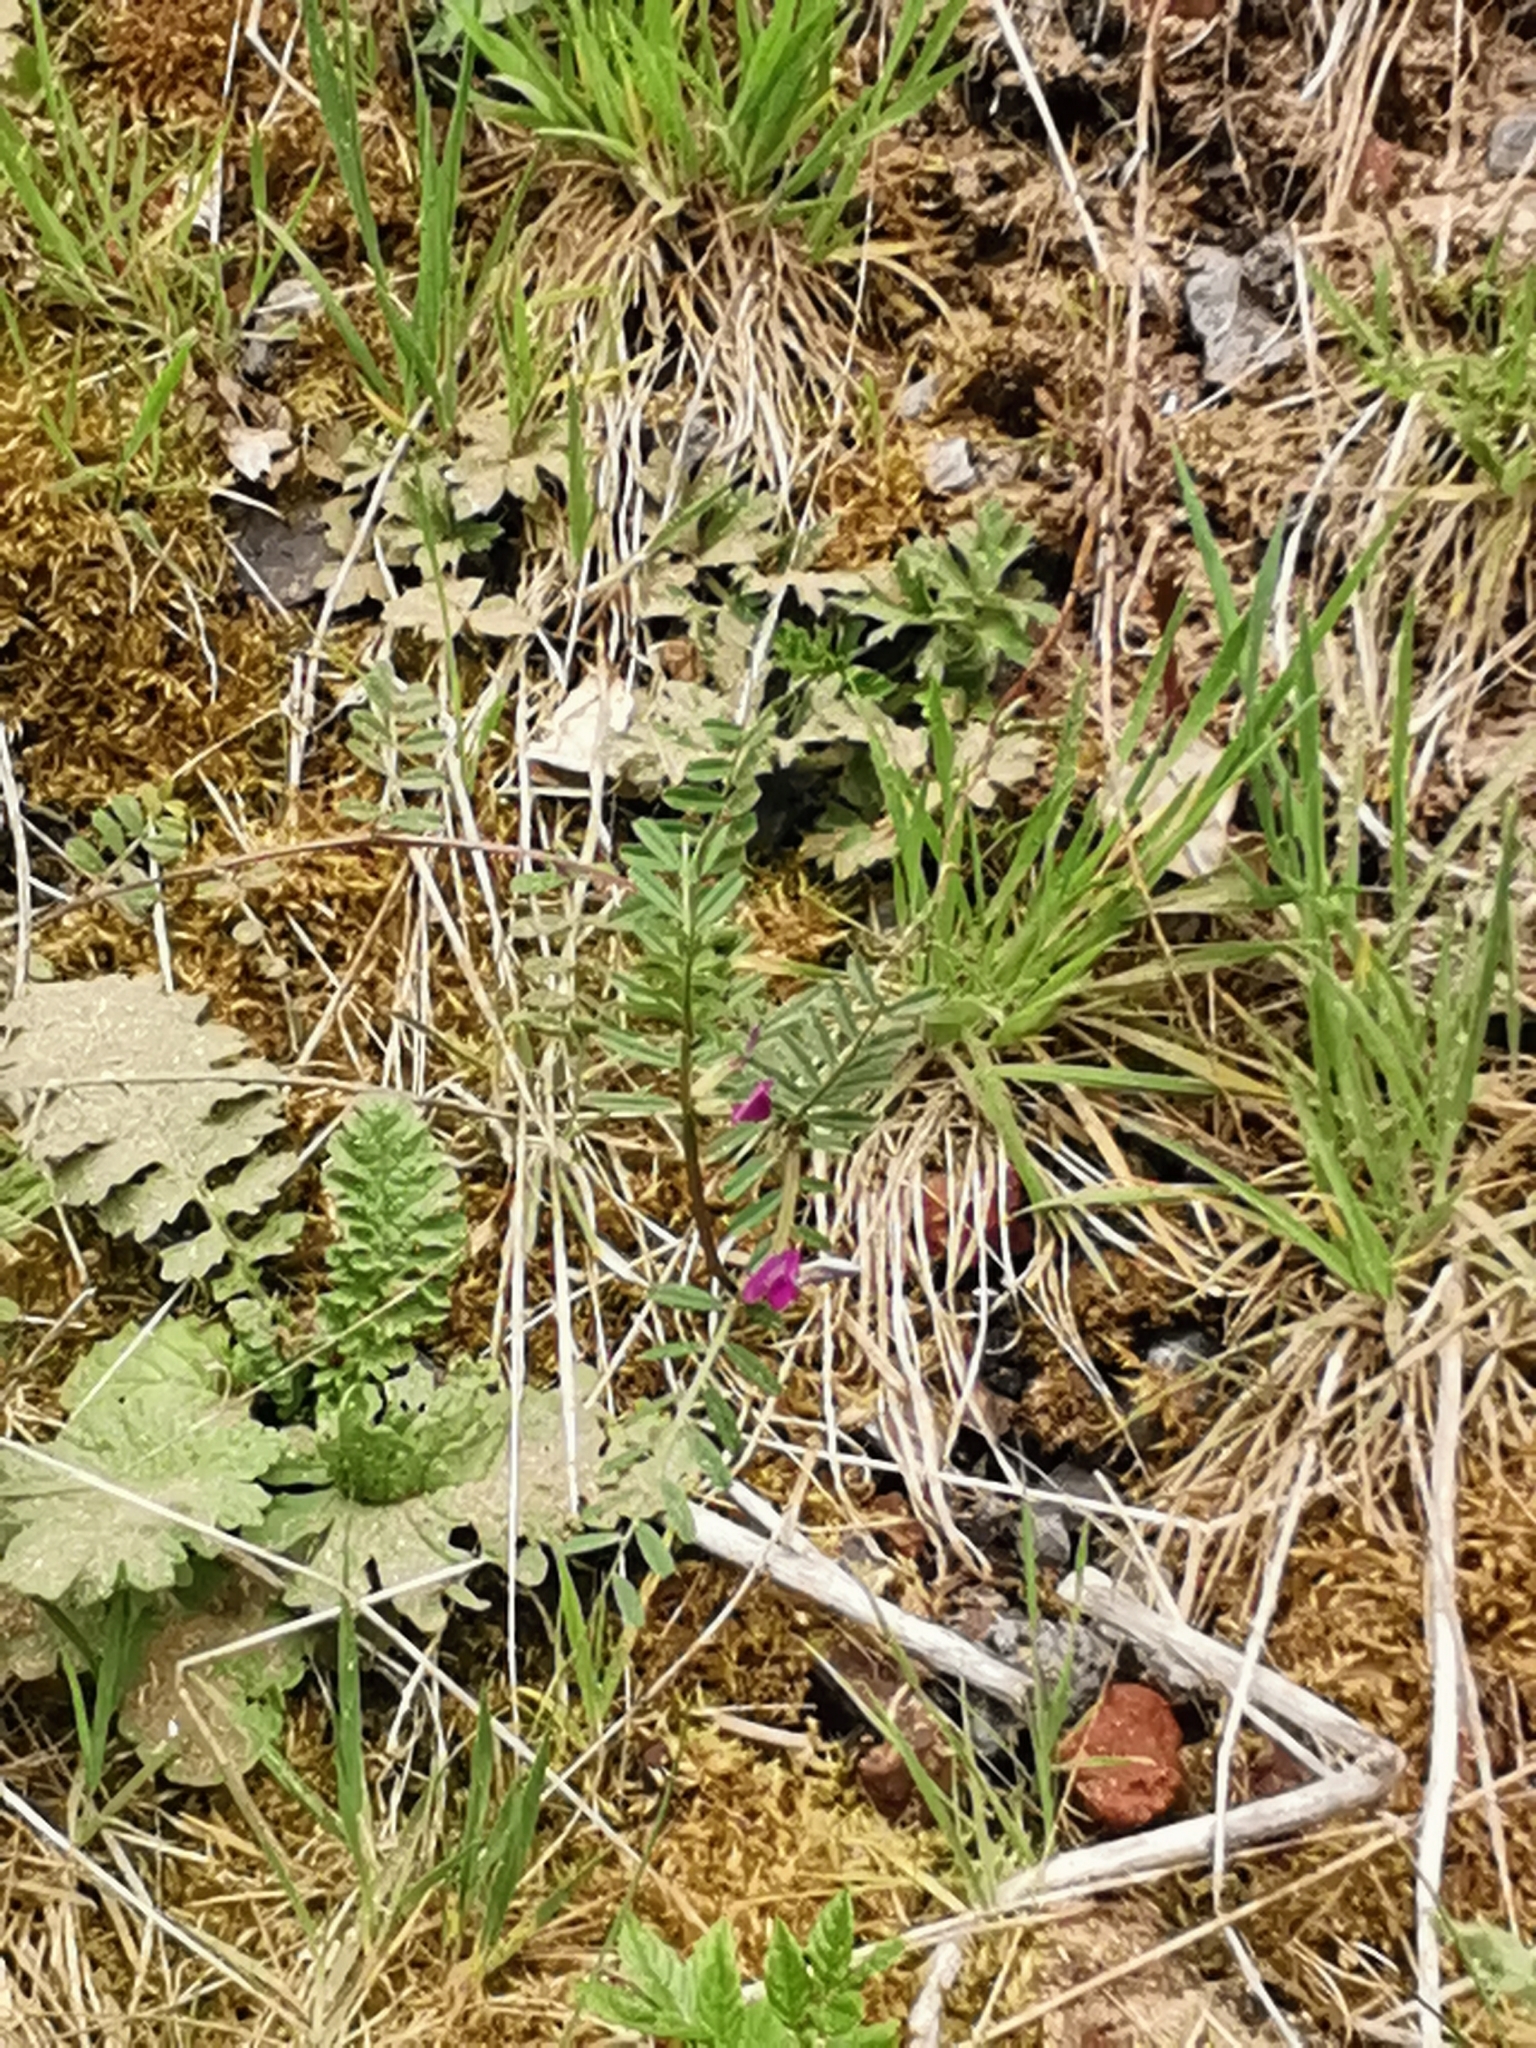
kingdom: Plantae
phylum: Tracheophyta
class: Magnoliopsida
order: Fabales
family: Fabaceae
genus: Vicia
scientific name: Vicia sativa
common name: Garden vetch
